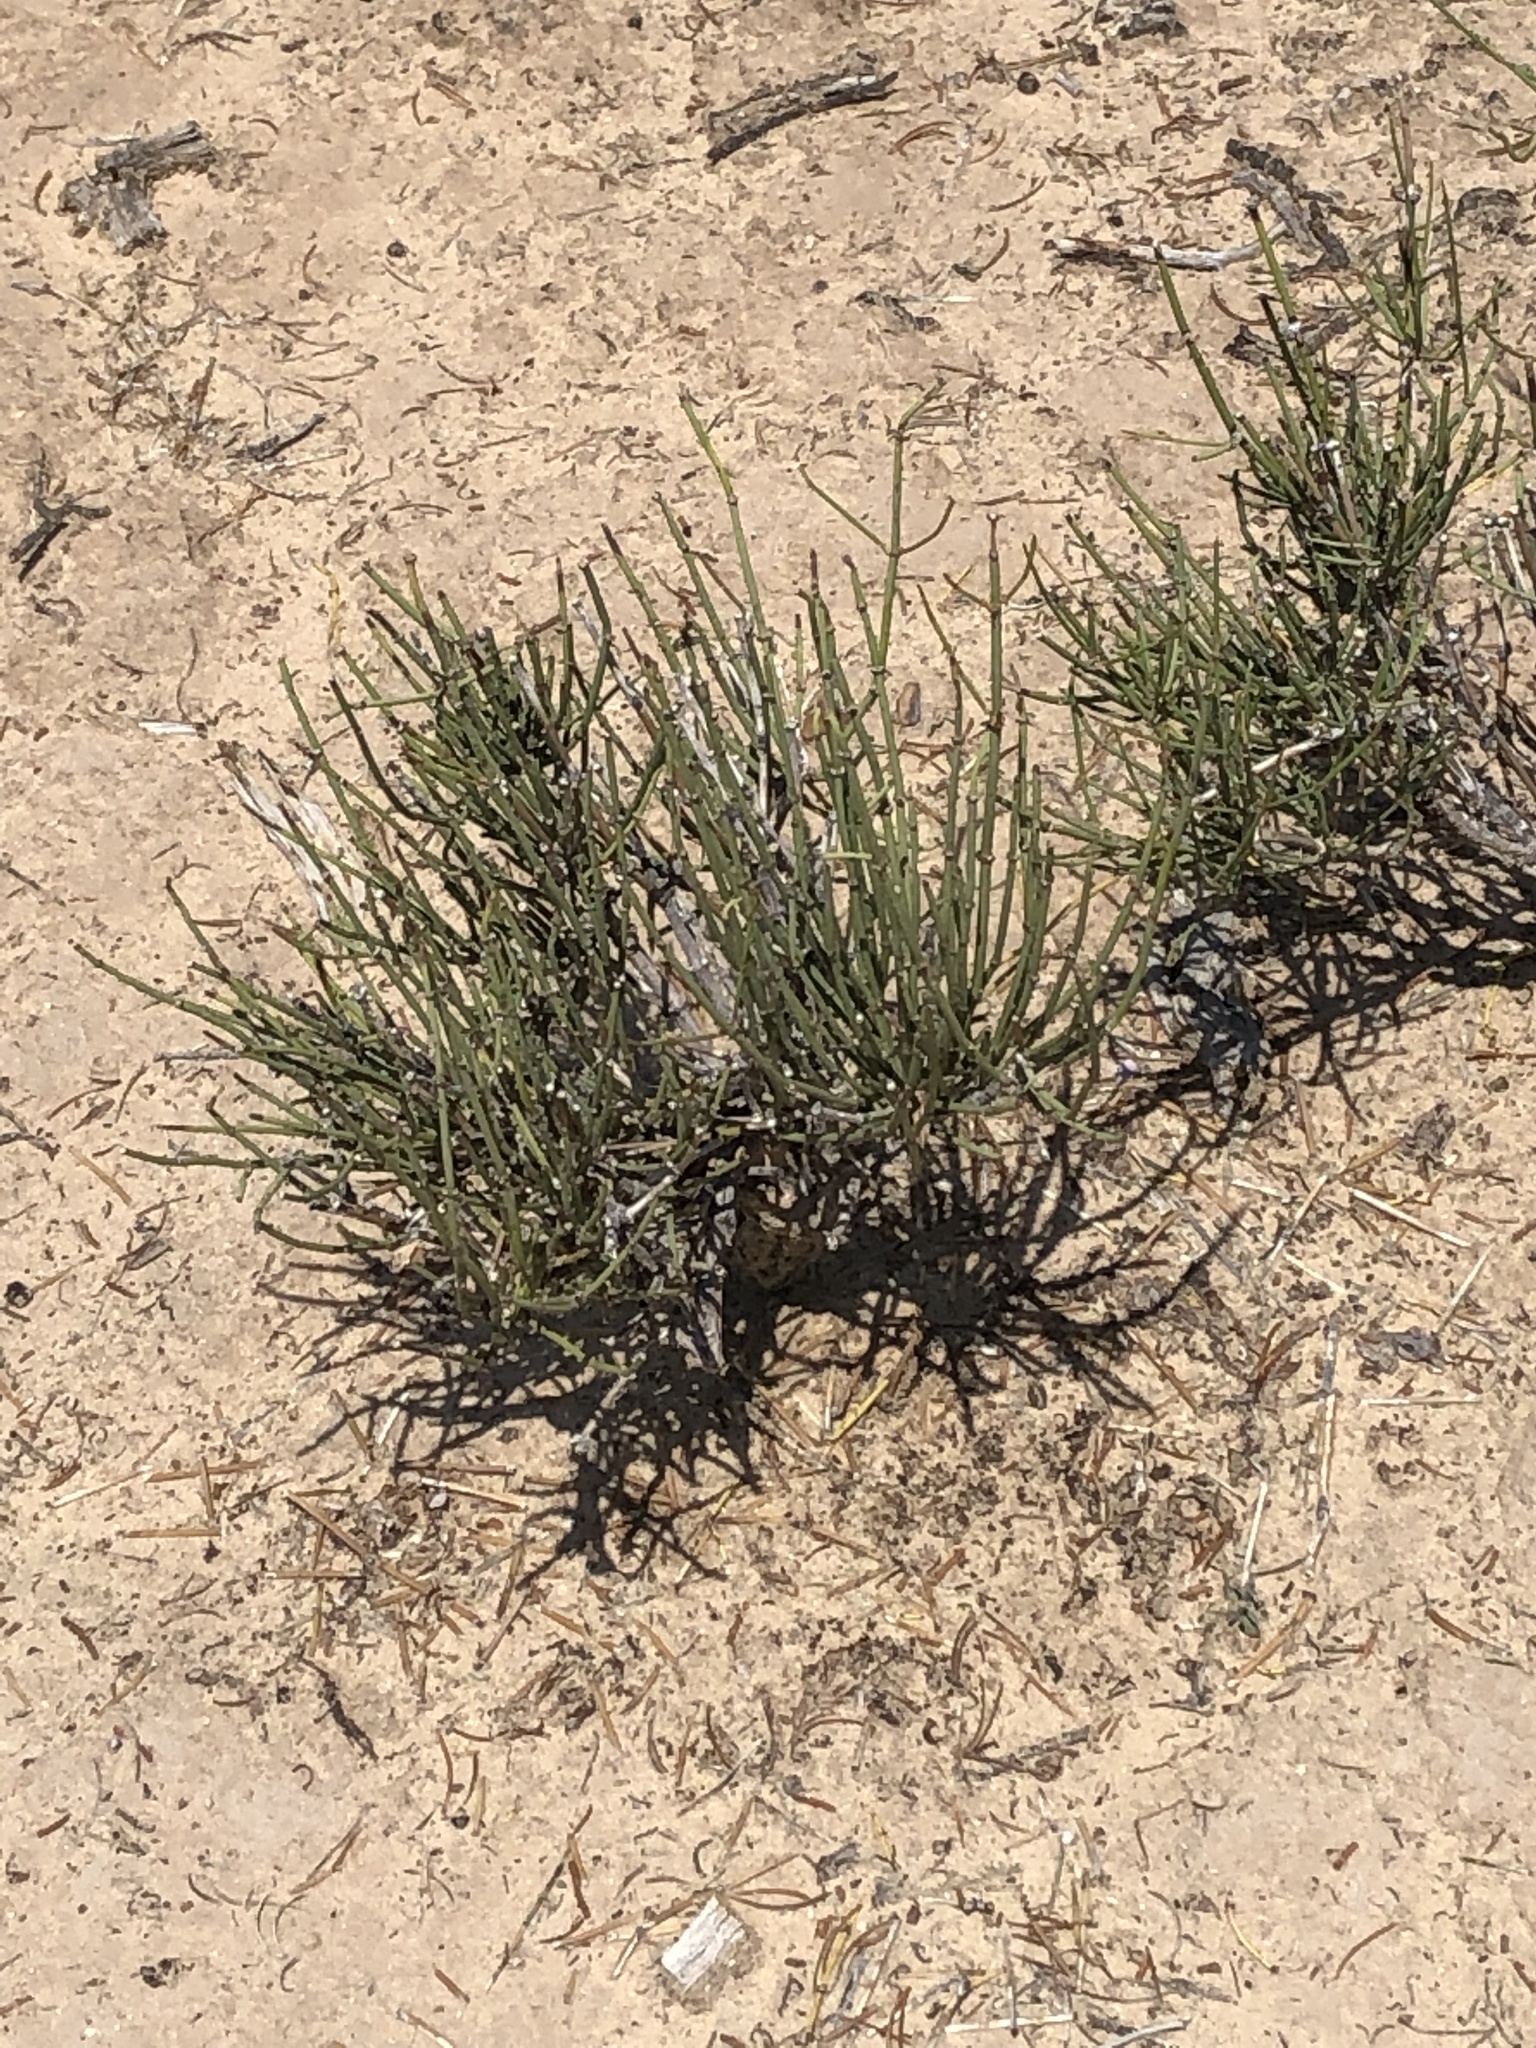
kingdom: Plantae
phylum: Tracheophyta
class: Gnetopsida
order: Ephedrales
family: Ephedraceae
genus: Ephedra
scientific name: Ephedra viridis
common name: Green ephedra
